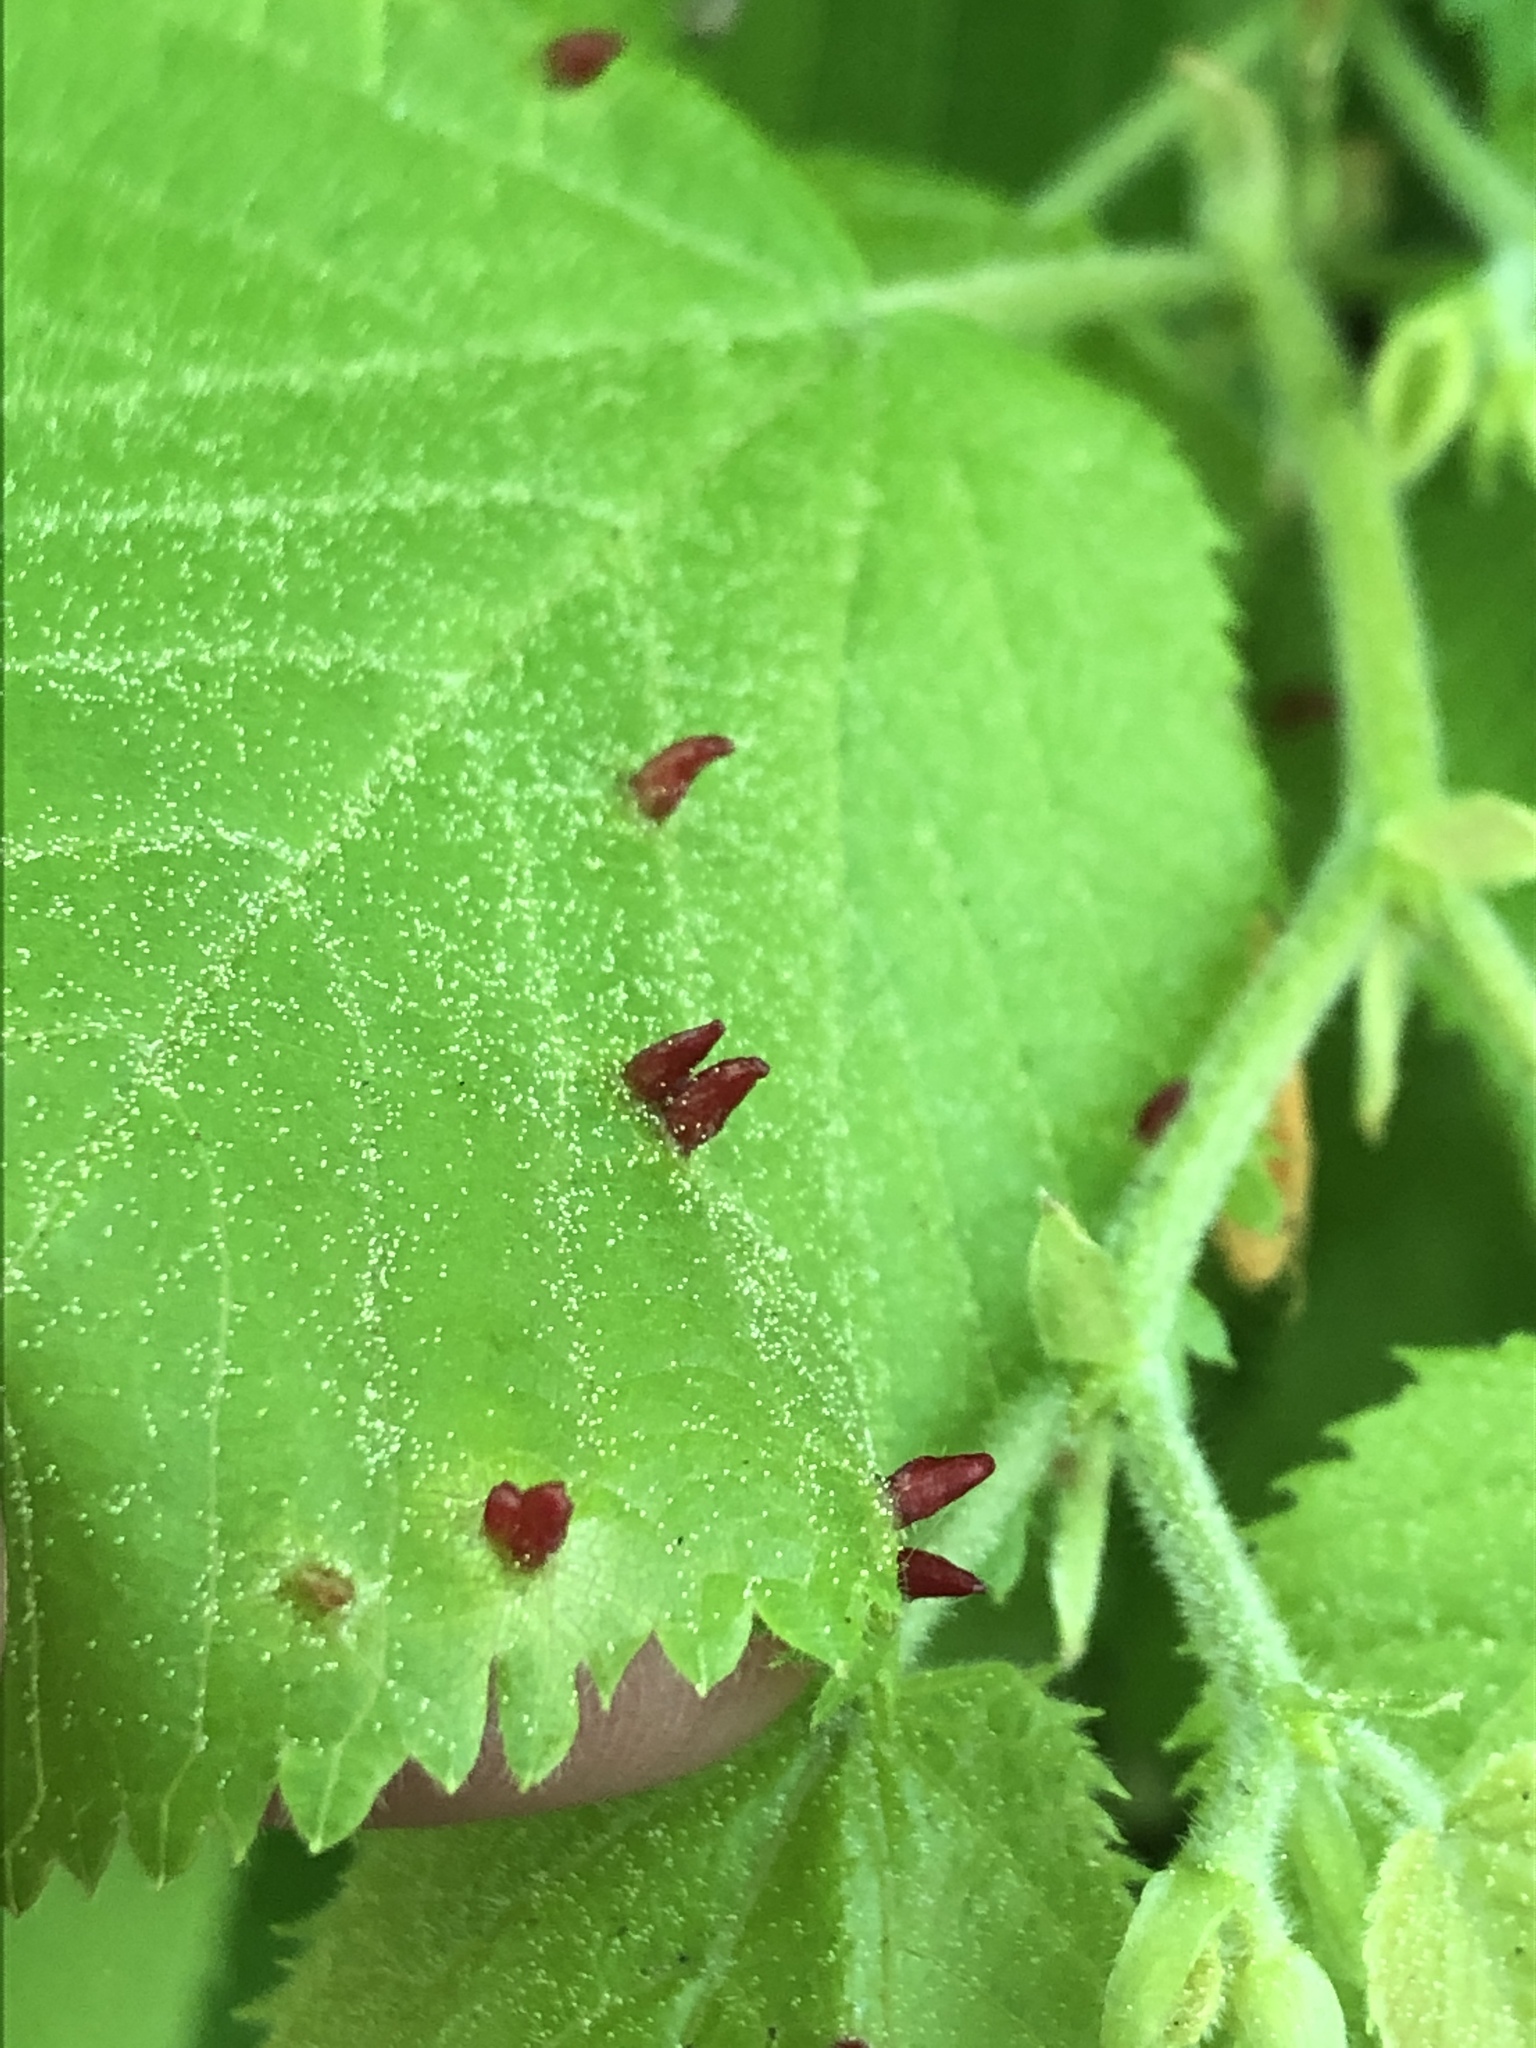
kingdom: Animalia
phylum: Arthropoda
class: Arachnida
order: Trombidiformes
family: Eriophyidae
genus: Eriophyes
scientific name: Eriophyes tiliae
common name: Red nail gall mite
